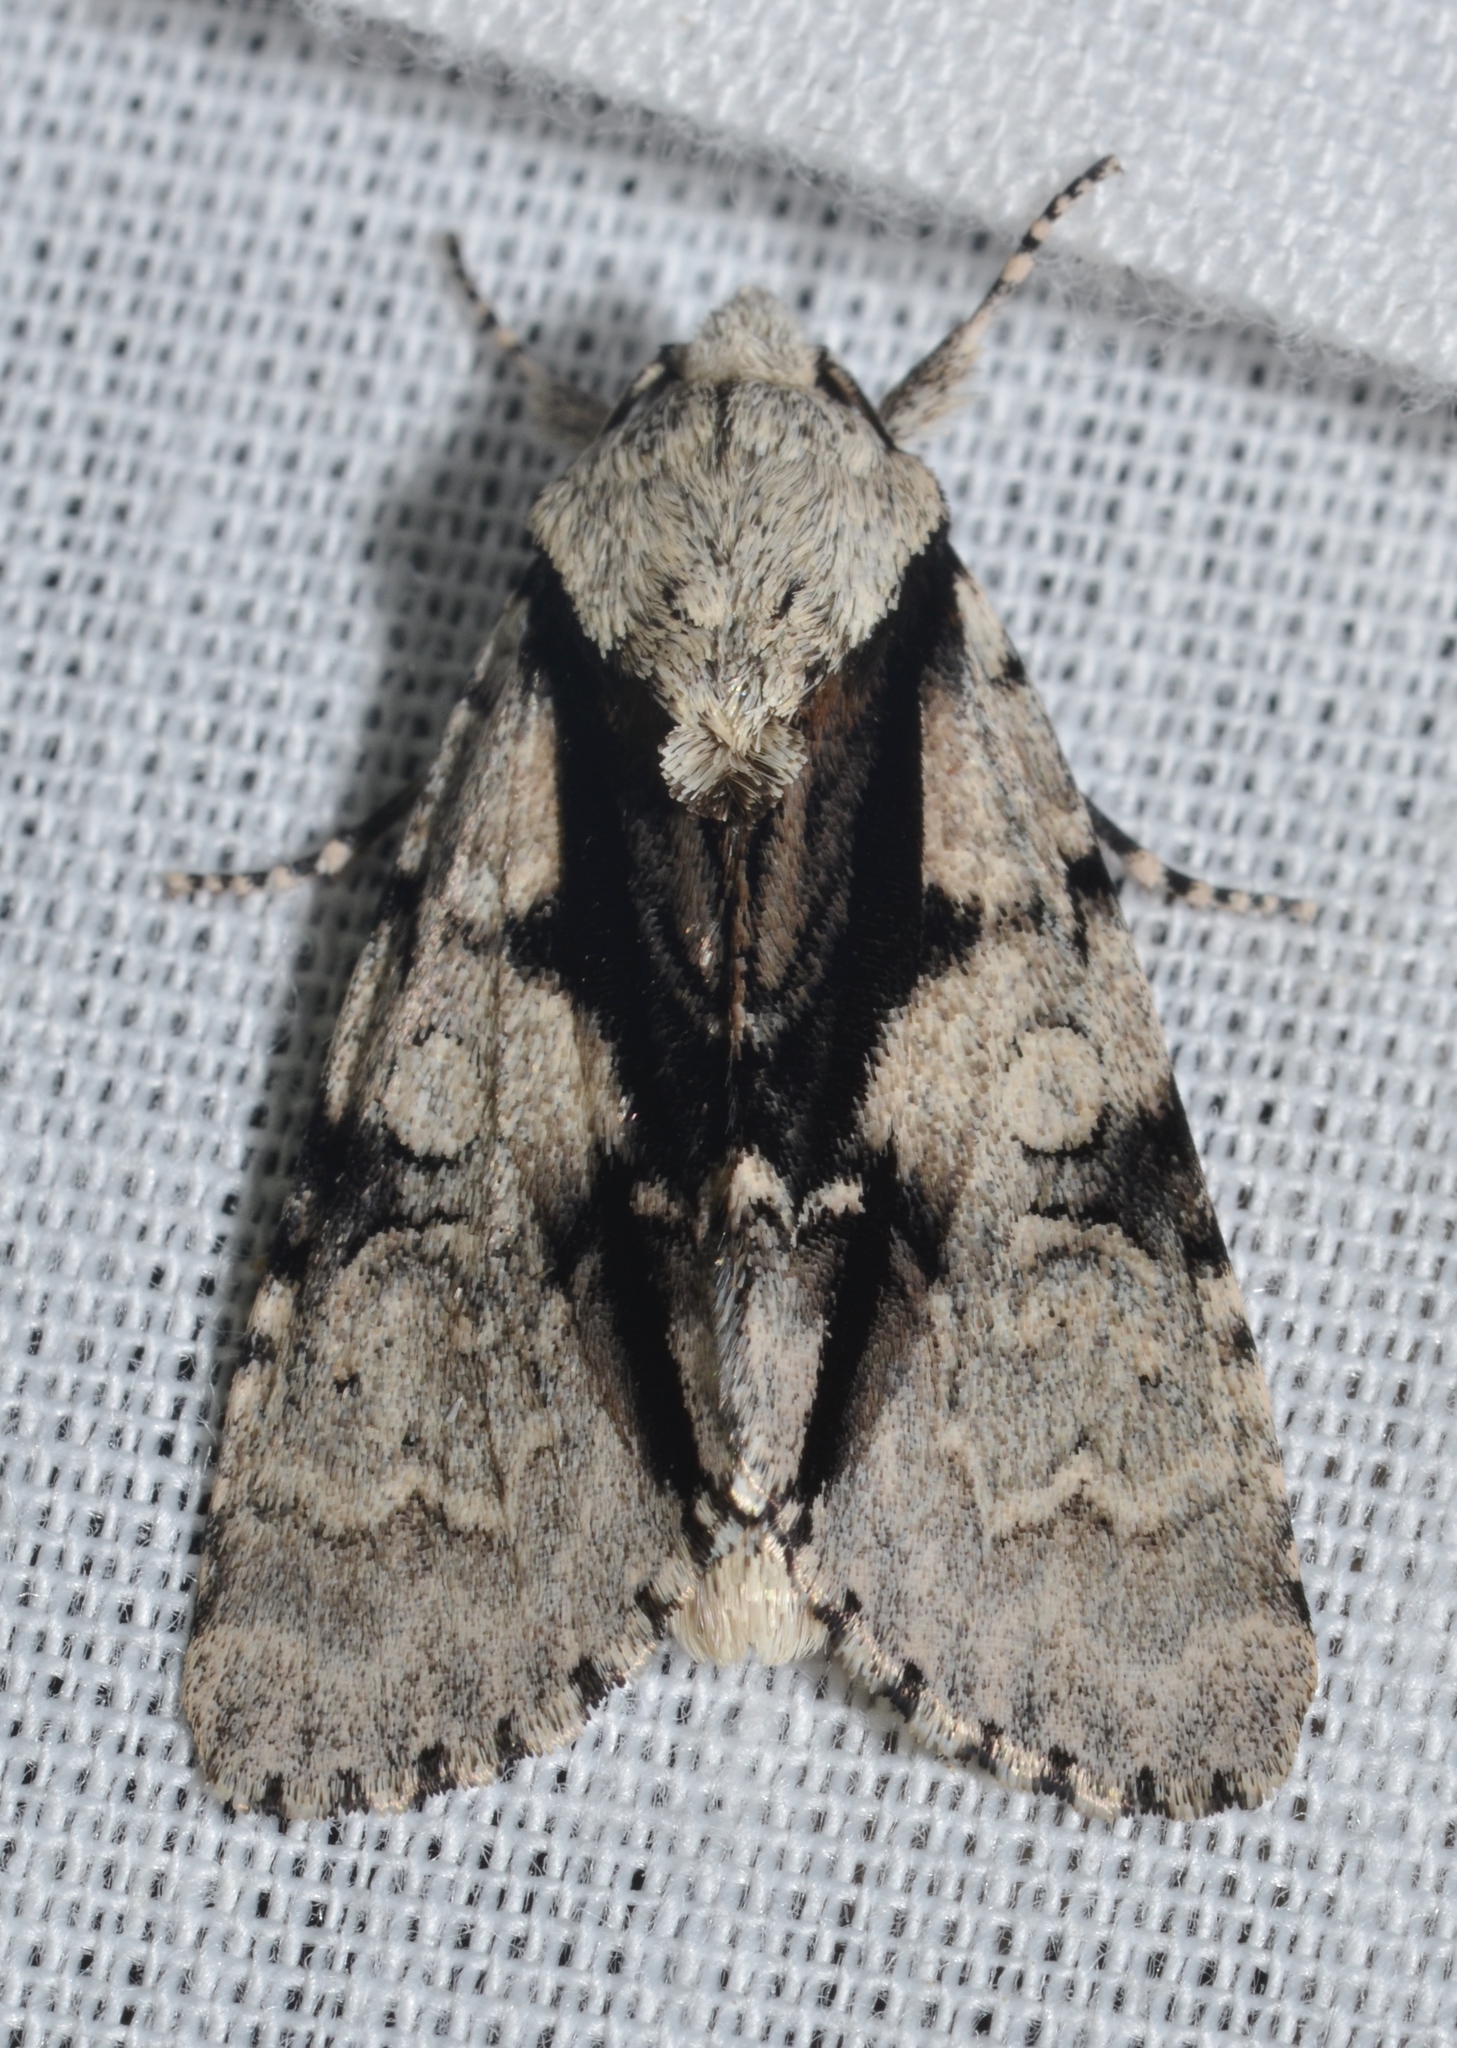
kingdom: Animalia
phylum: Arthropoda
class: Insecta
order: Lepidoptera
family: Noctuidae
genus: Acronicta
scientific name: Acronicta funeralis
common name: Funerary dagger
